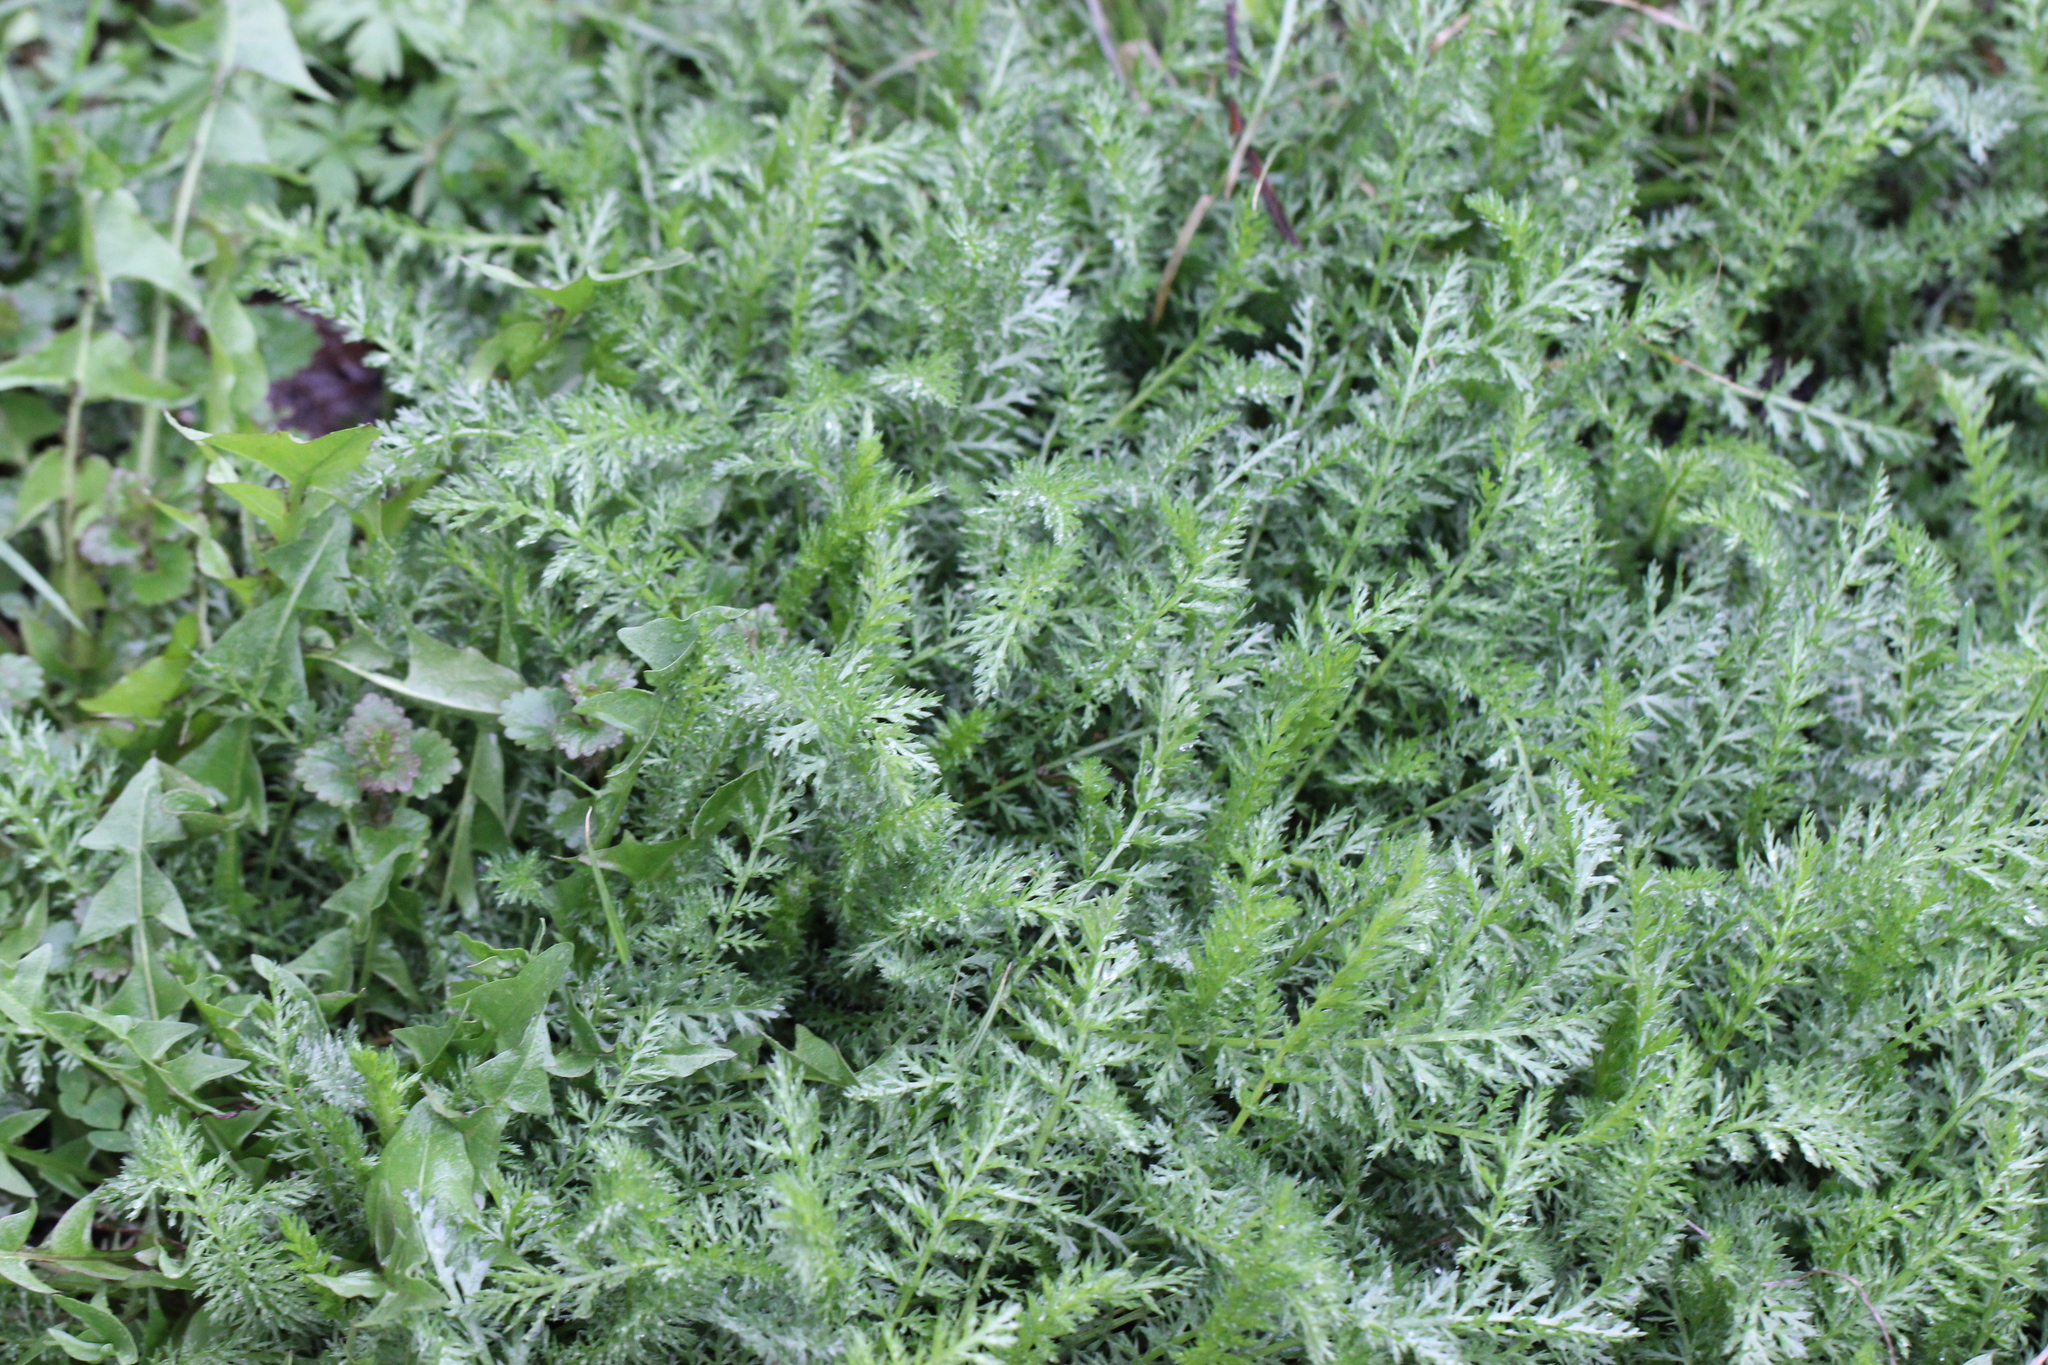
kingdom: Plantae
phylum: Tracheophyta
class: Magnoliopsida
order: Asterales
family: Asteraceae
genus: Achillea
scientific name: Achillea millefolium
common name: Yarrow
